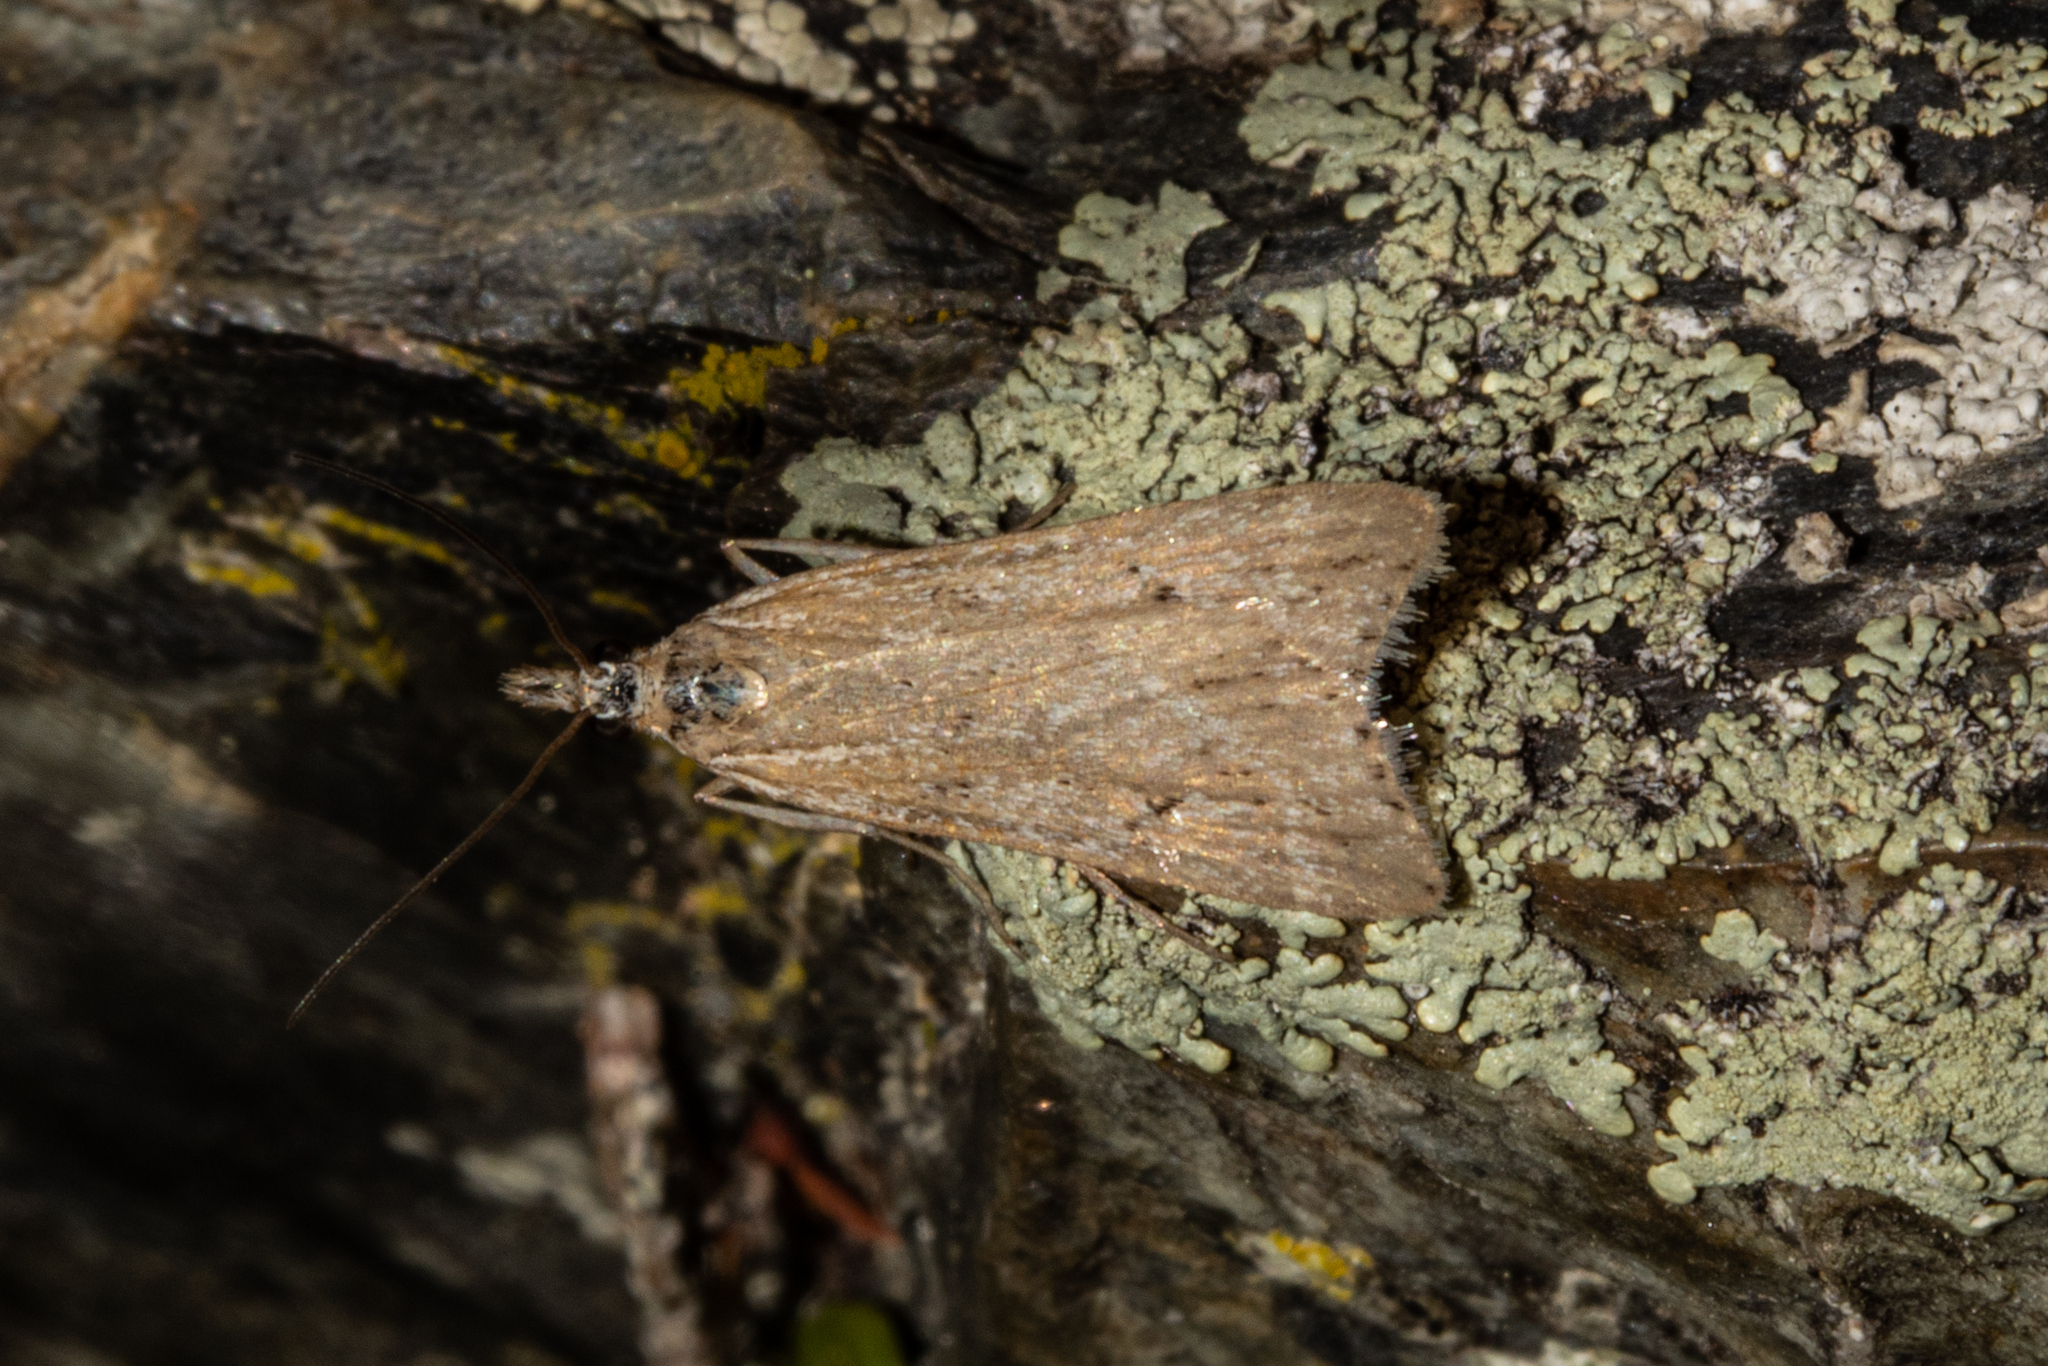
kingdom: Animalia
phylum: Arthropoda
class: Insecta
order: Lepidoptera
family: Crambidae
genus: Eudonia
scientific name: Eudonia deltophora
